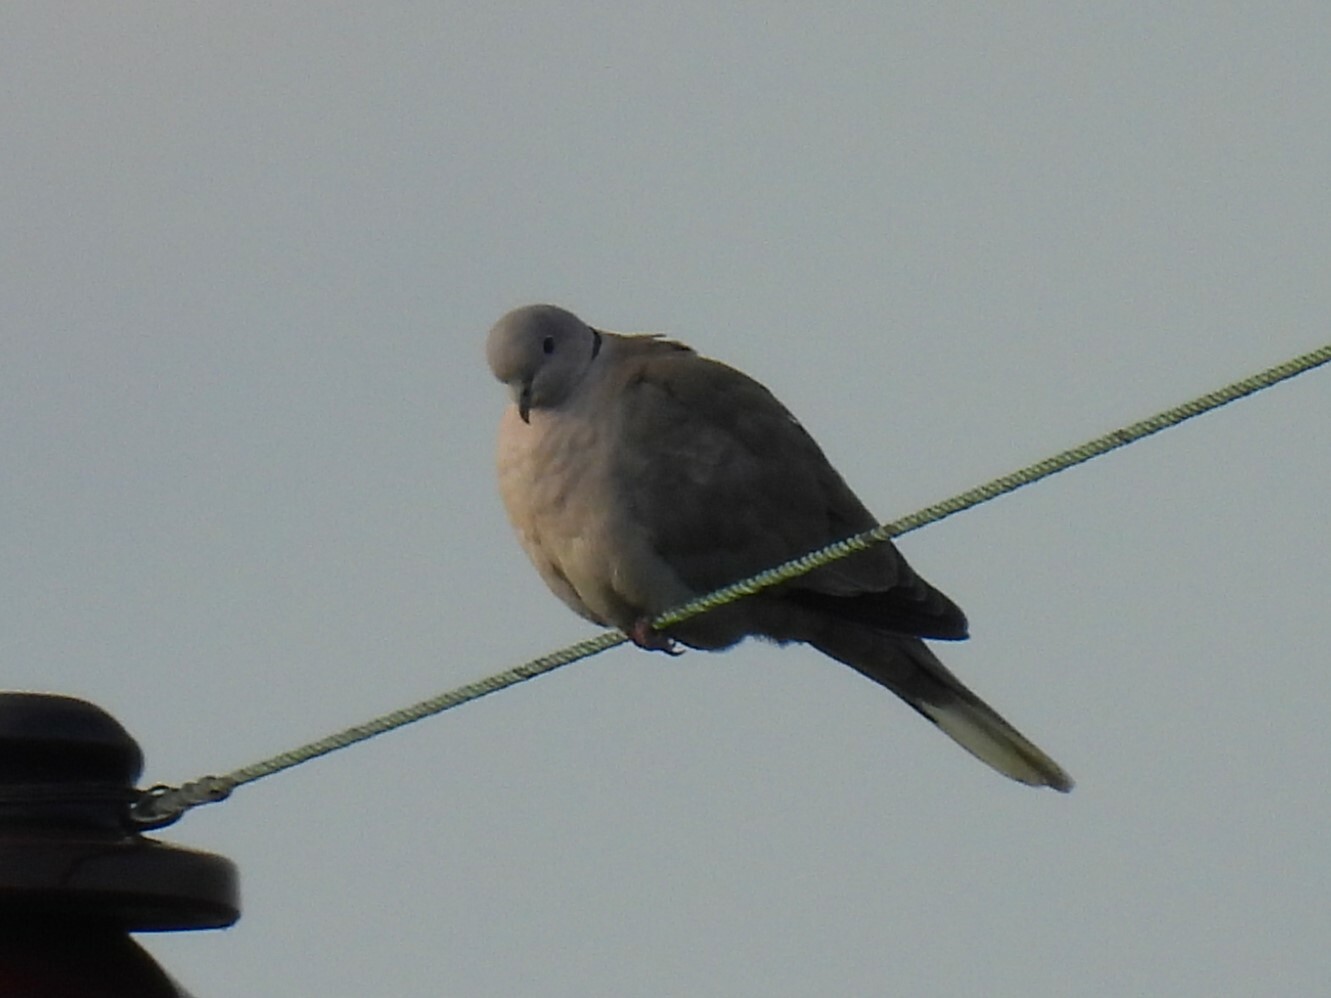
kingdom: Animalia
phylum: Chordata
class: Aves
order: Columbiformes
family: Columbidae
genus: Streptopelia
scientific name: Streptopelia decaocto
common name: Eurasian collared dove
